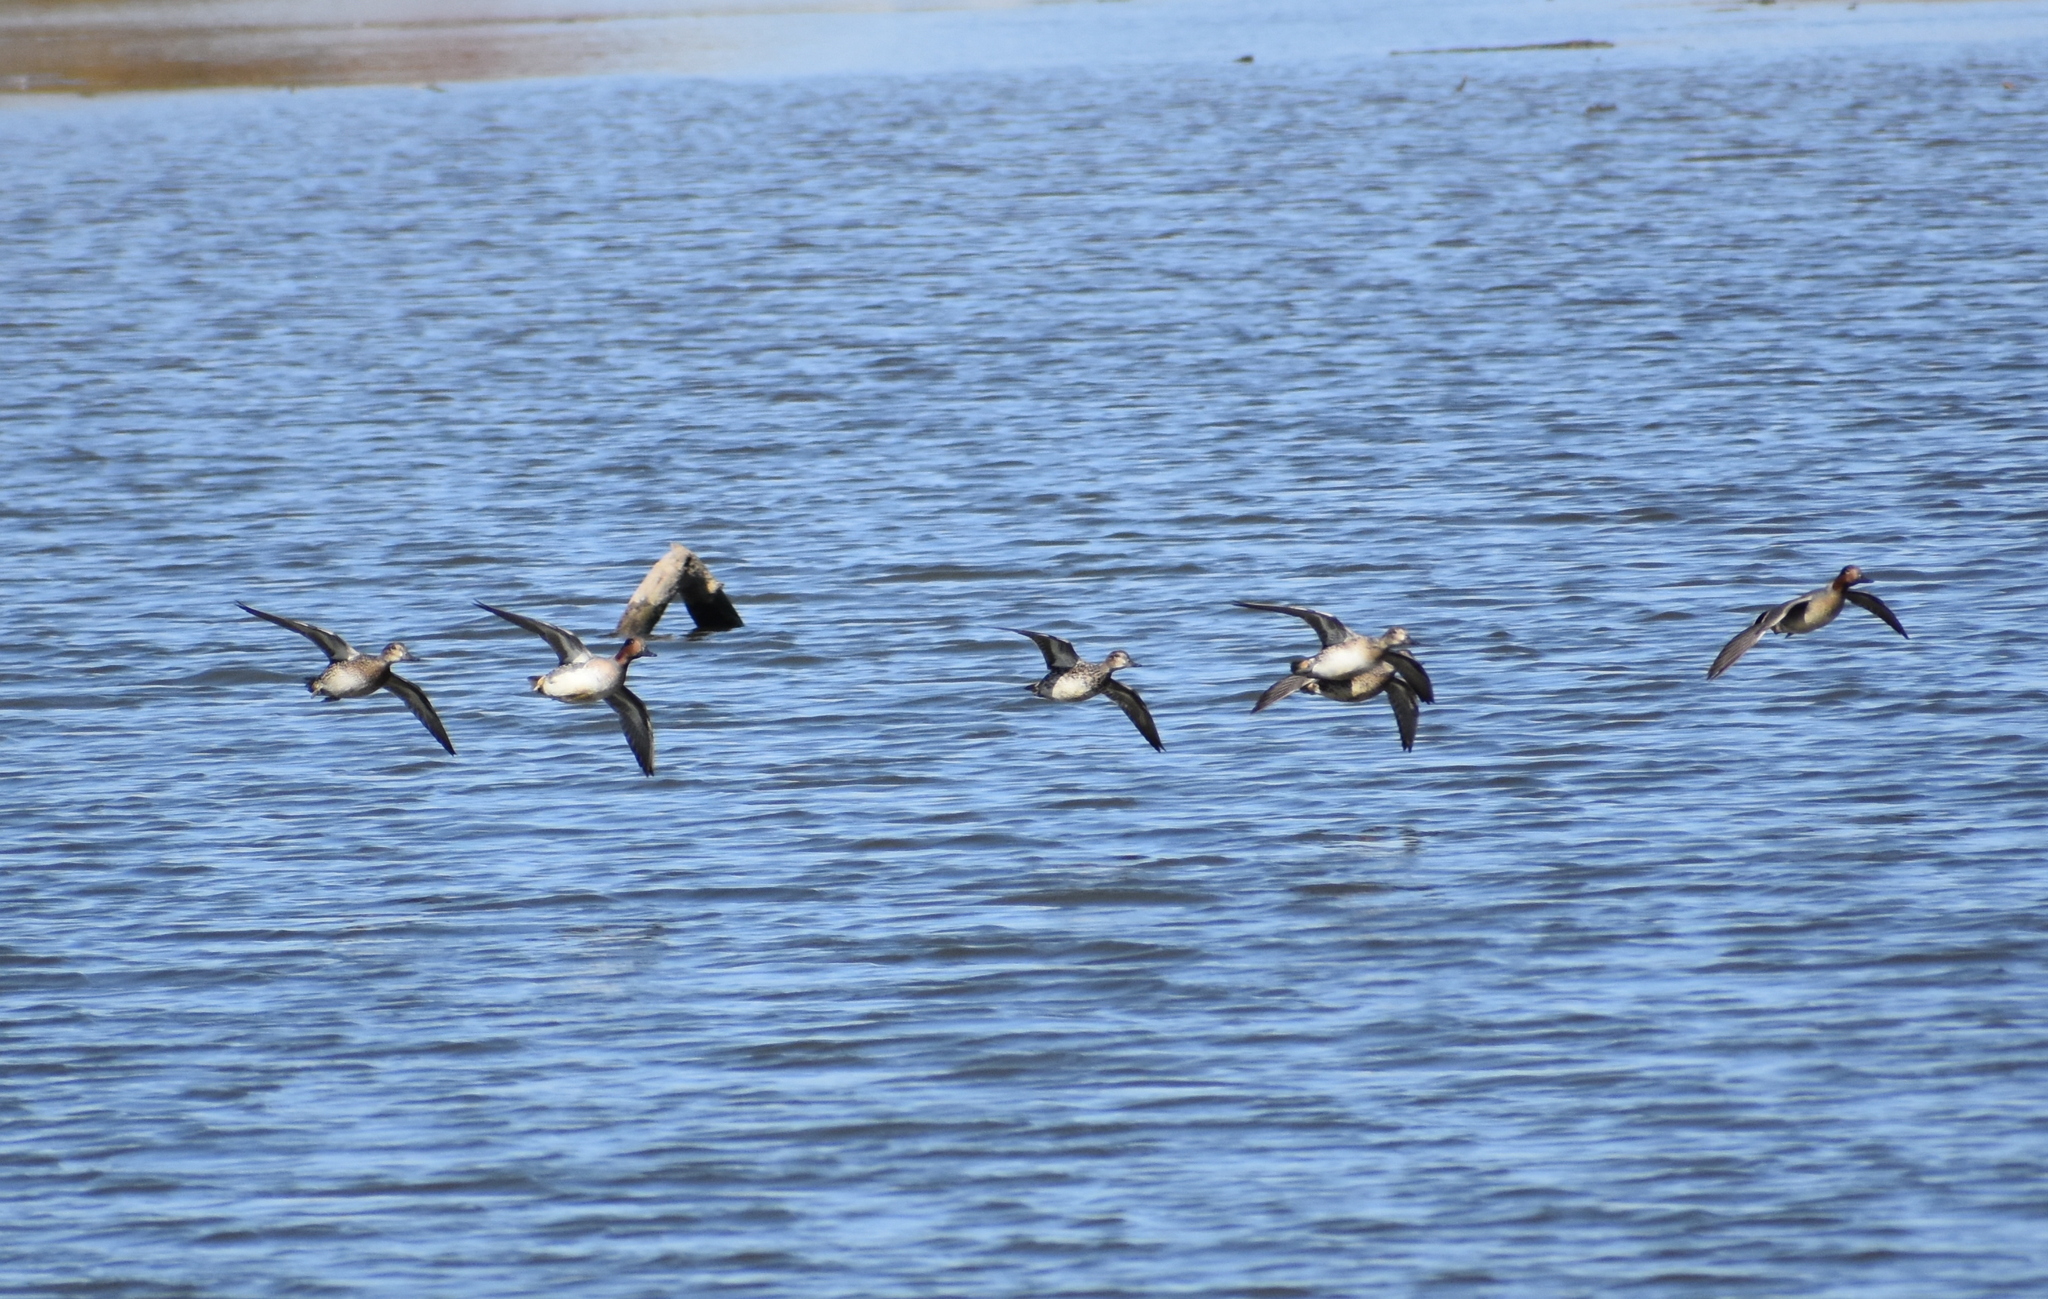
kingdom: Animalia
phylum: Chordata
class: Aves
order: Anseriformes
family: Anatidae
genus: Anas
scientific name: Anas crecca
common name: Eurasian teal
